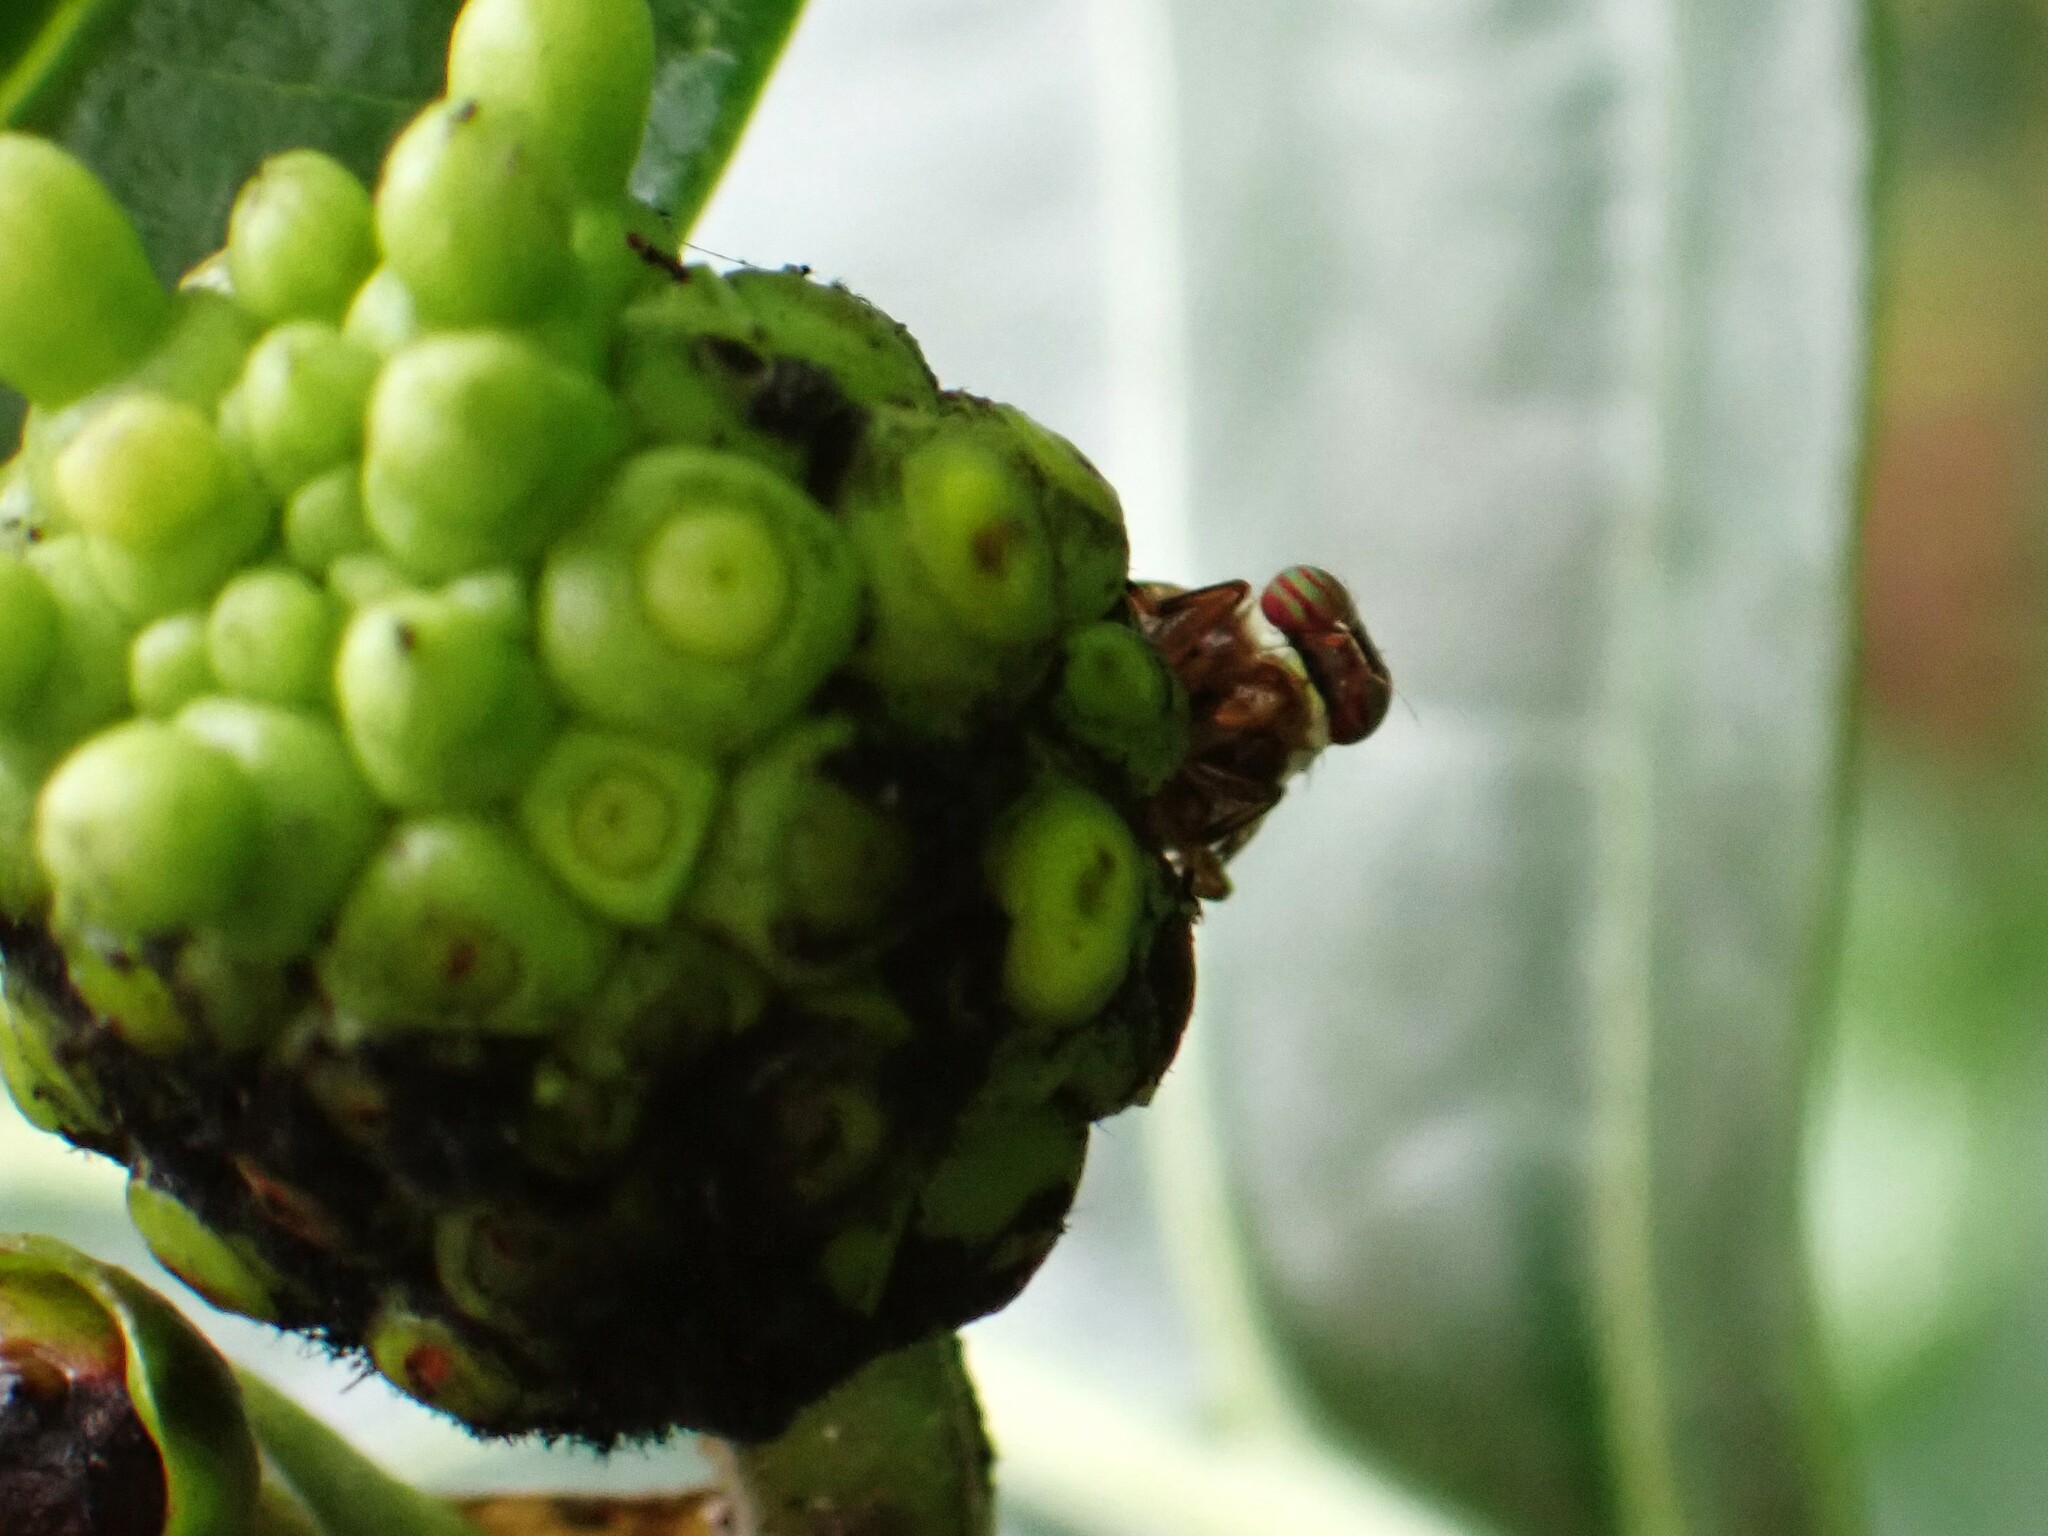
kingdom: Animalia
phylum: Arthropoda
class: Insecta
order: Diptera
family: Platystomatidae
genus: Scholastes
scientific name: Scholastes lonchifer
